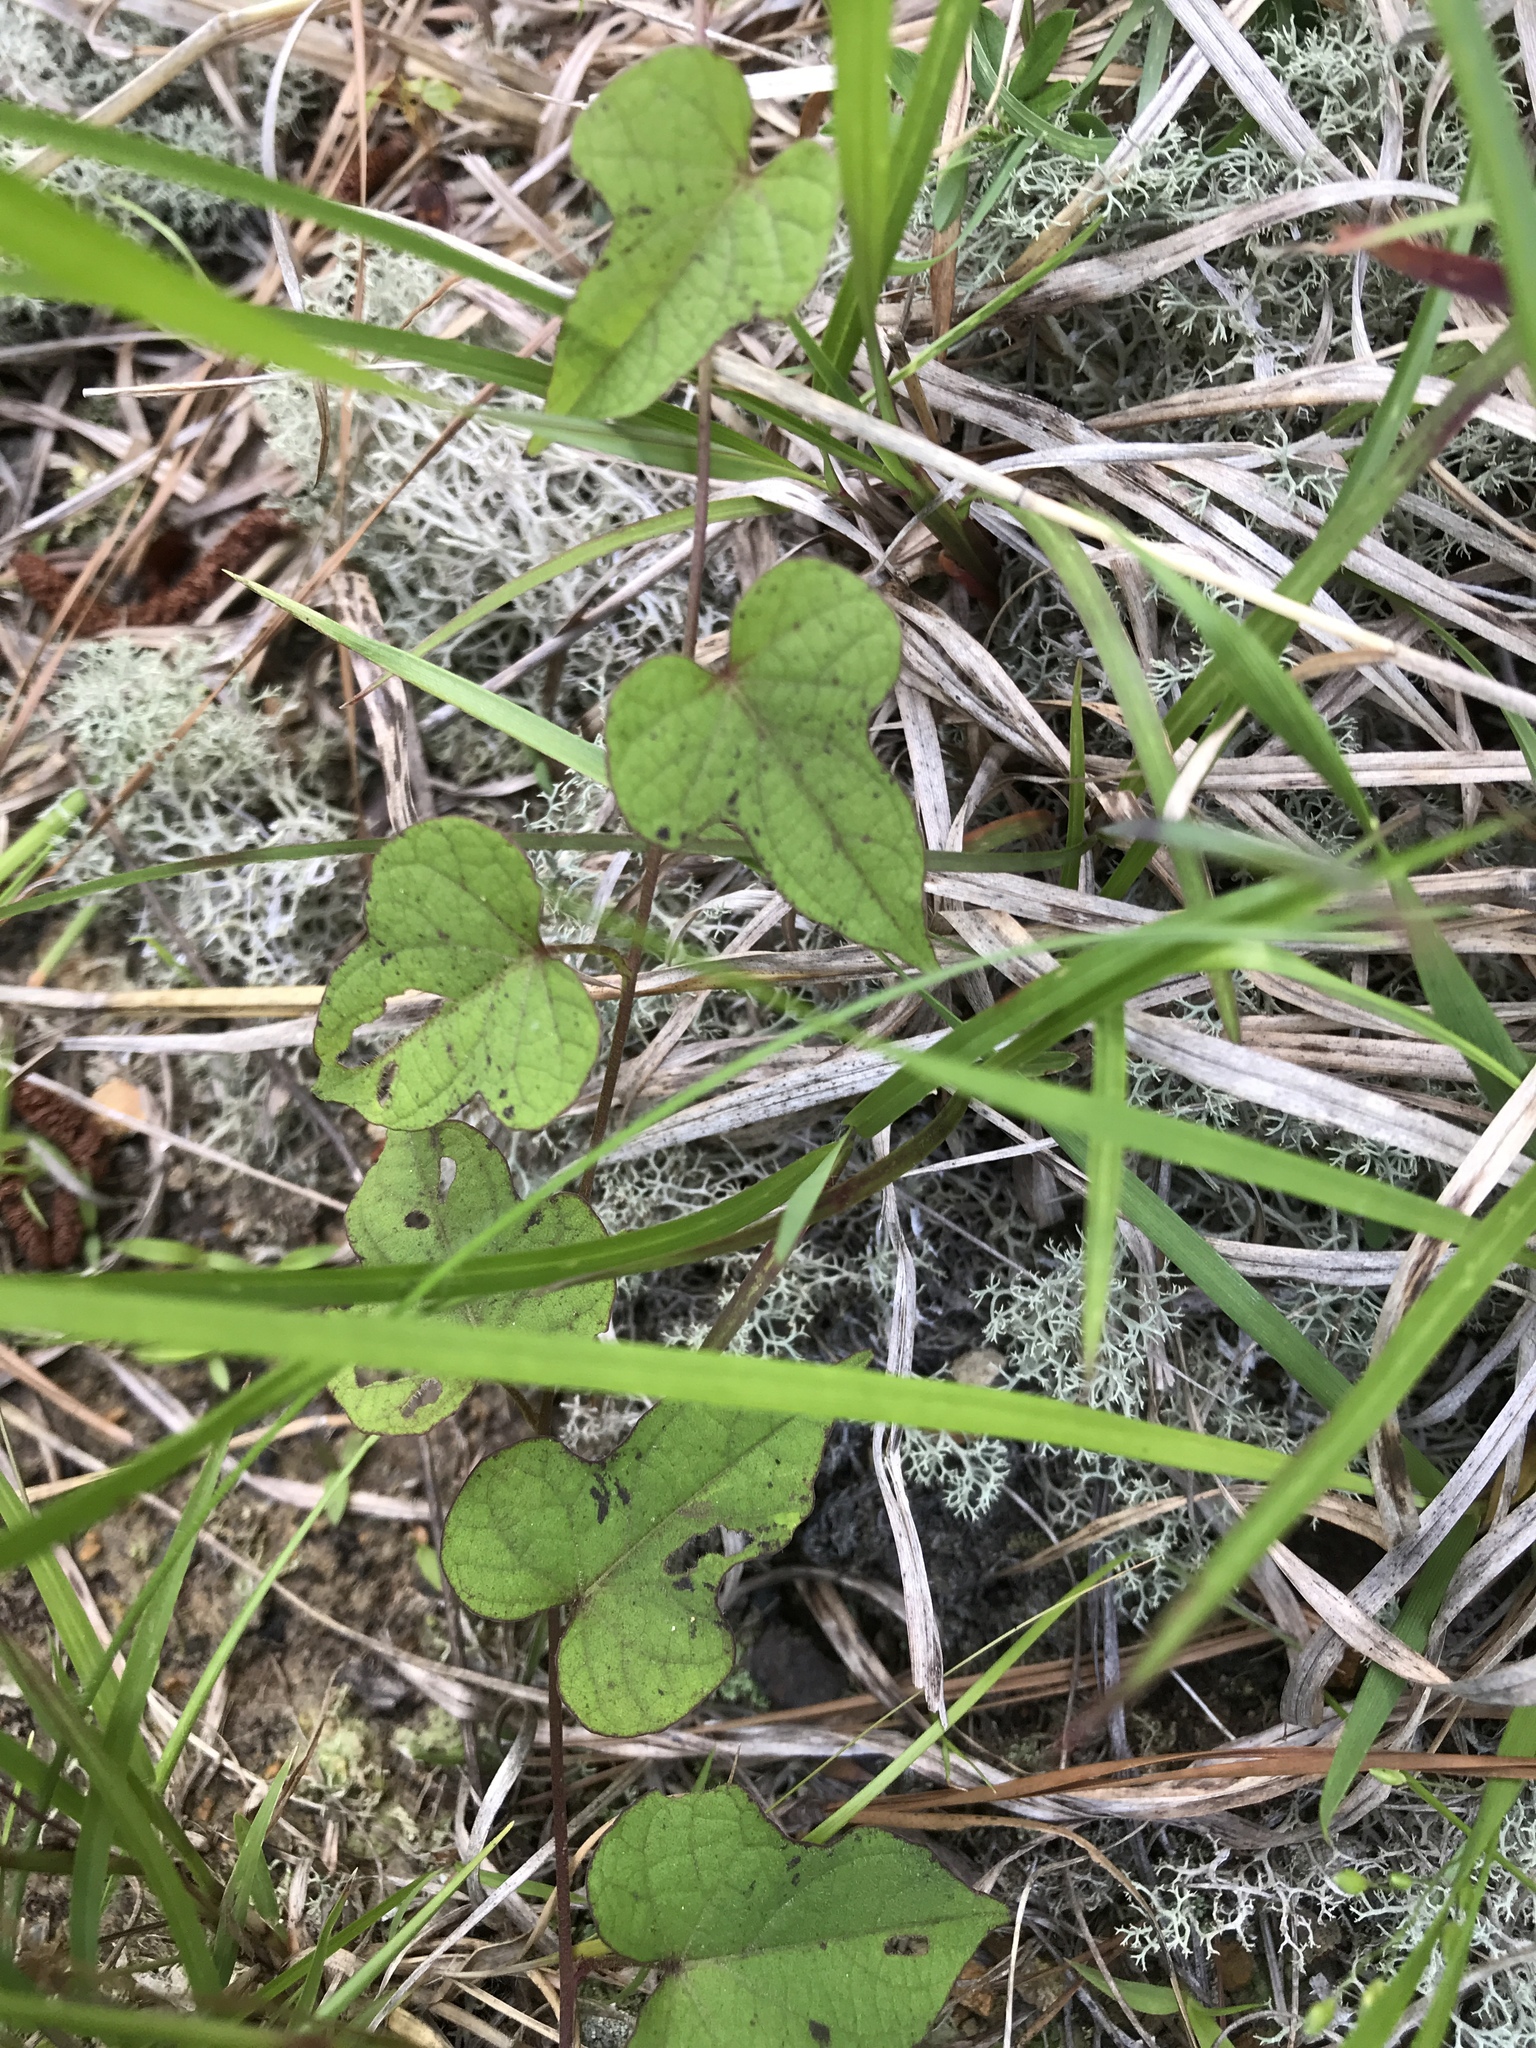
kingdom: Plantae
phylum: Tracheophyta
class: Magnoliopsida
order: Solanales
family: Convolvulaceae
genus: Ipomoea
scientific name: Ipomoea pandurata
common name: Man-of-the-earth
